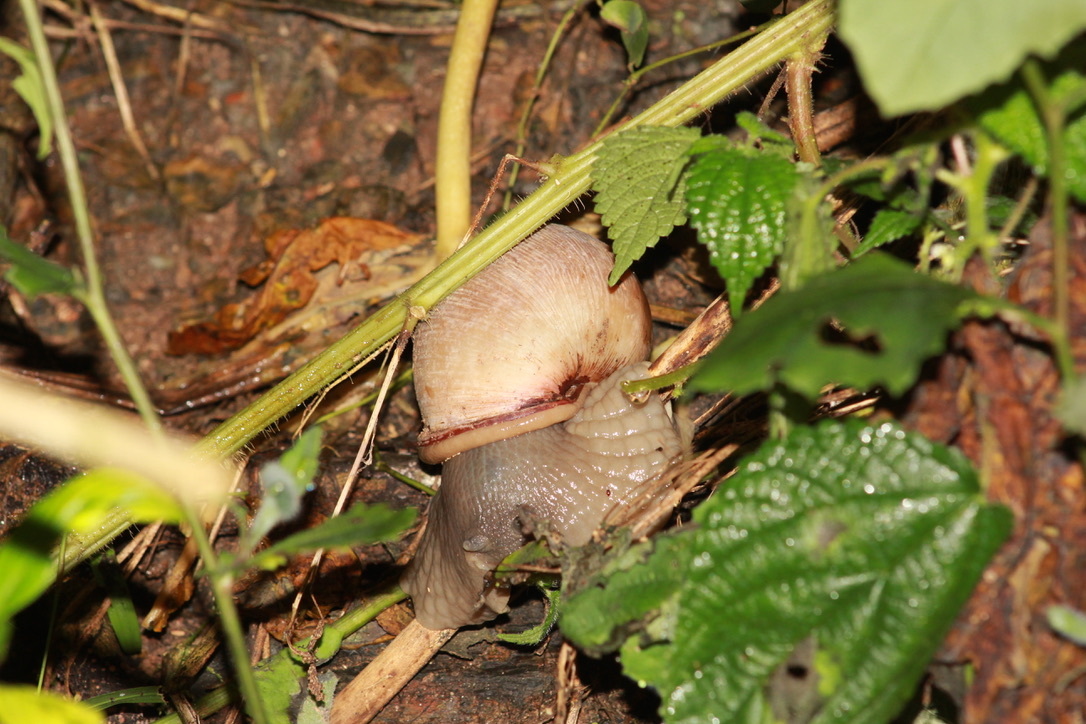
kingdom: Animalia
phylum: Mollusca
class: Gastropoda
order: Stylommatophora
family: Strophocheilidae
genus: Megalobulimus
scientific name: Megalobulimus oblongus
